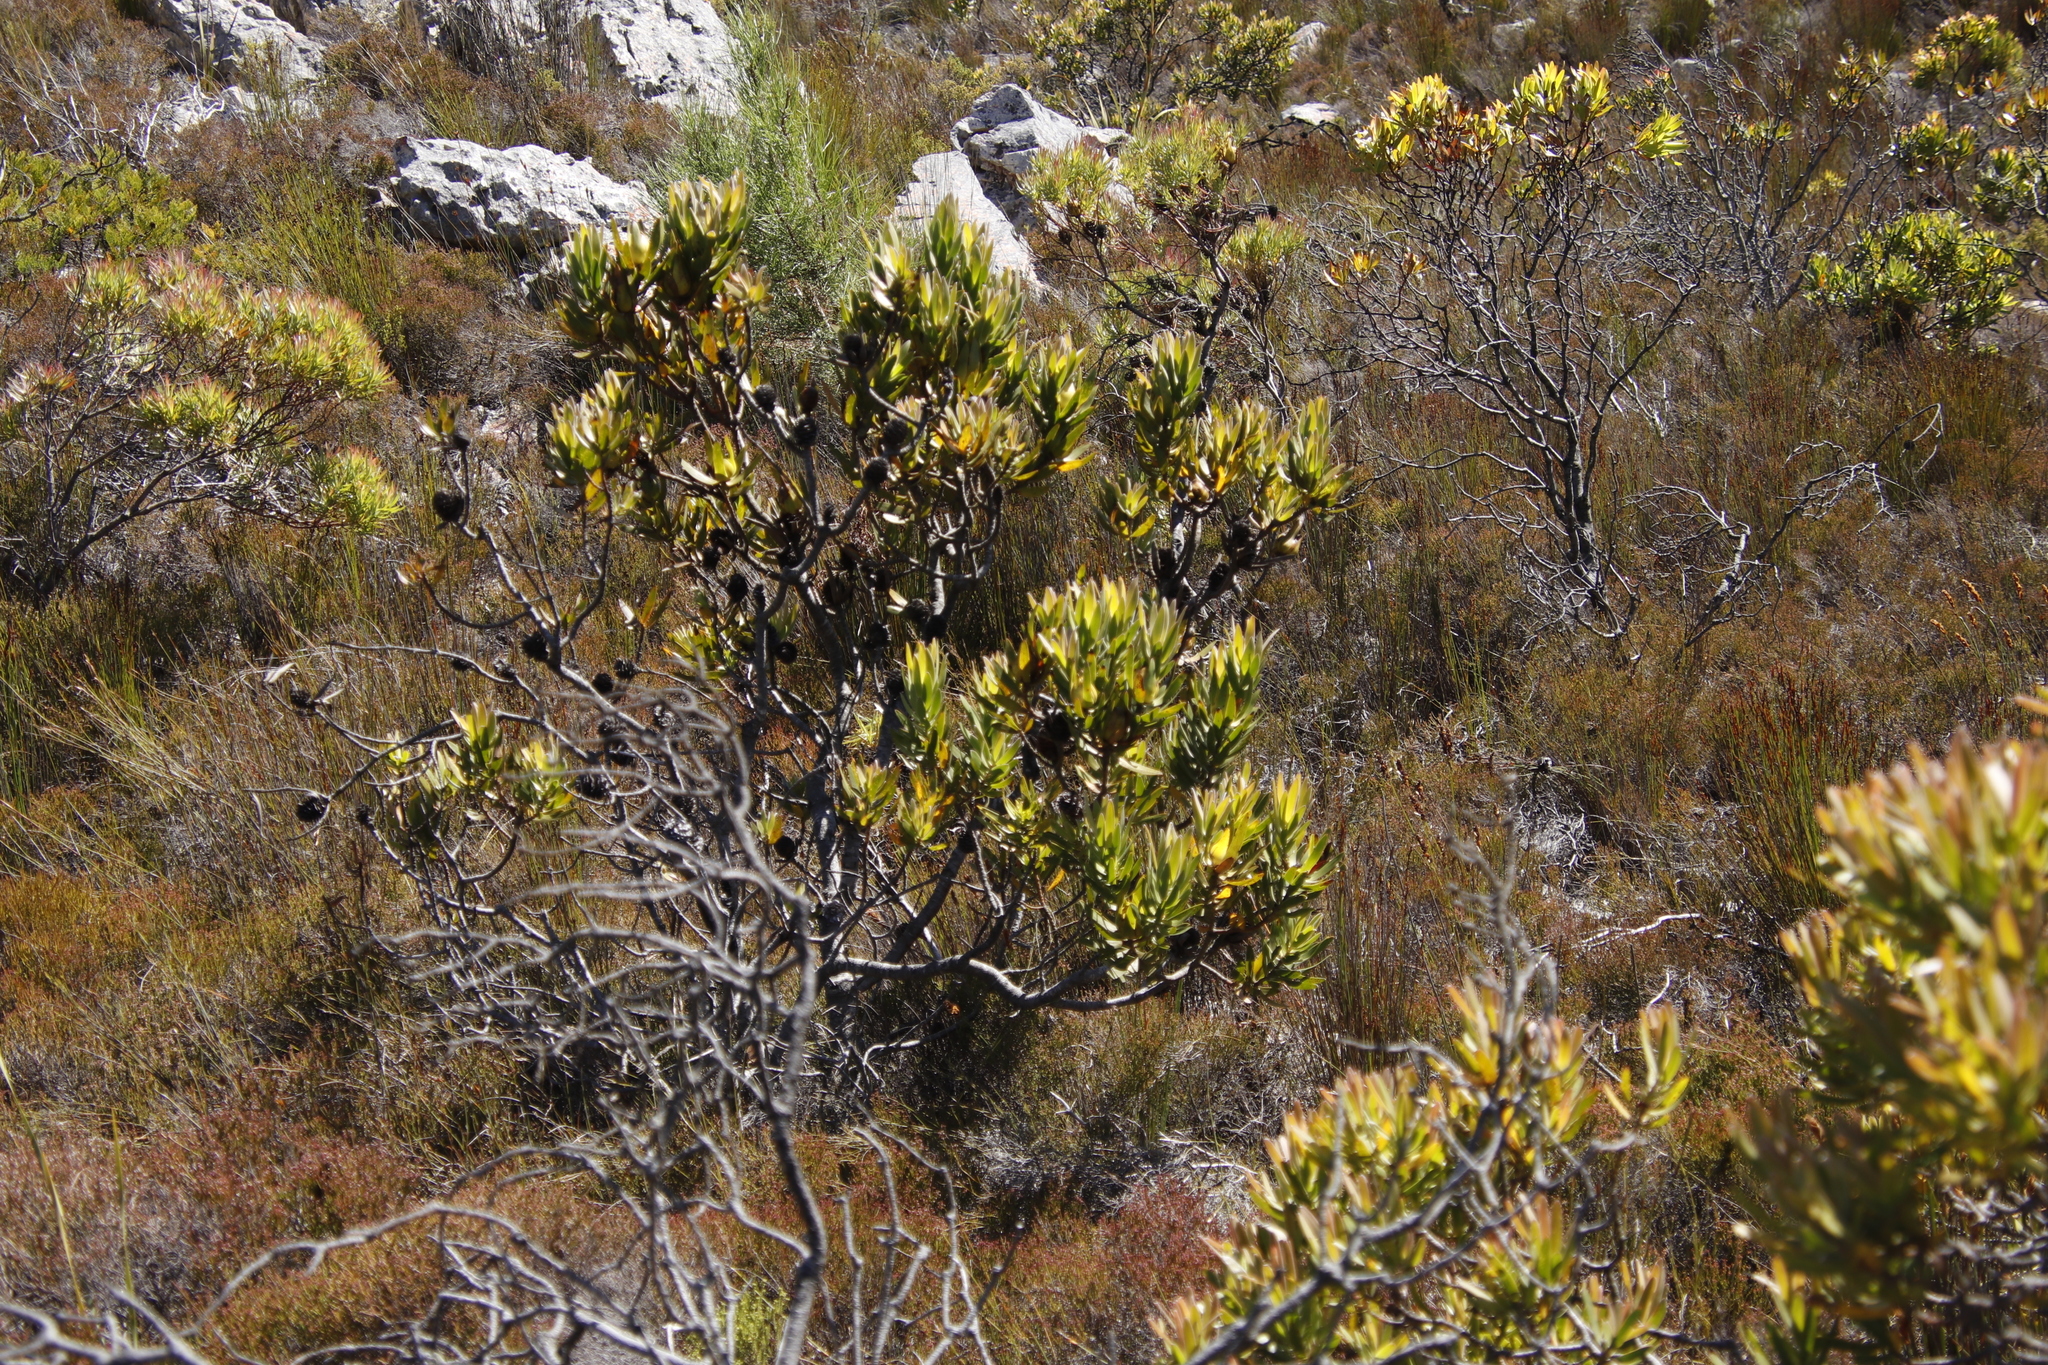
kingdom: Plantae
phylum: Tracheophyta
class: Magnoliopsida
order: Proteales
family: Proteaceae
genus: Leucadendron
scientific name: Leucadendron laureolum
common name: Golden sunshinebush
